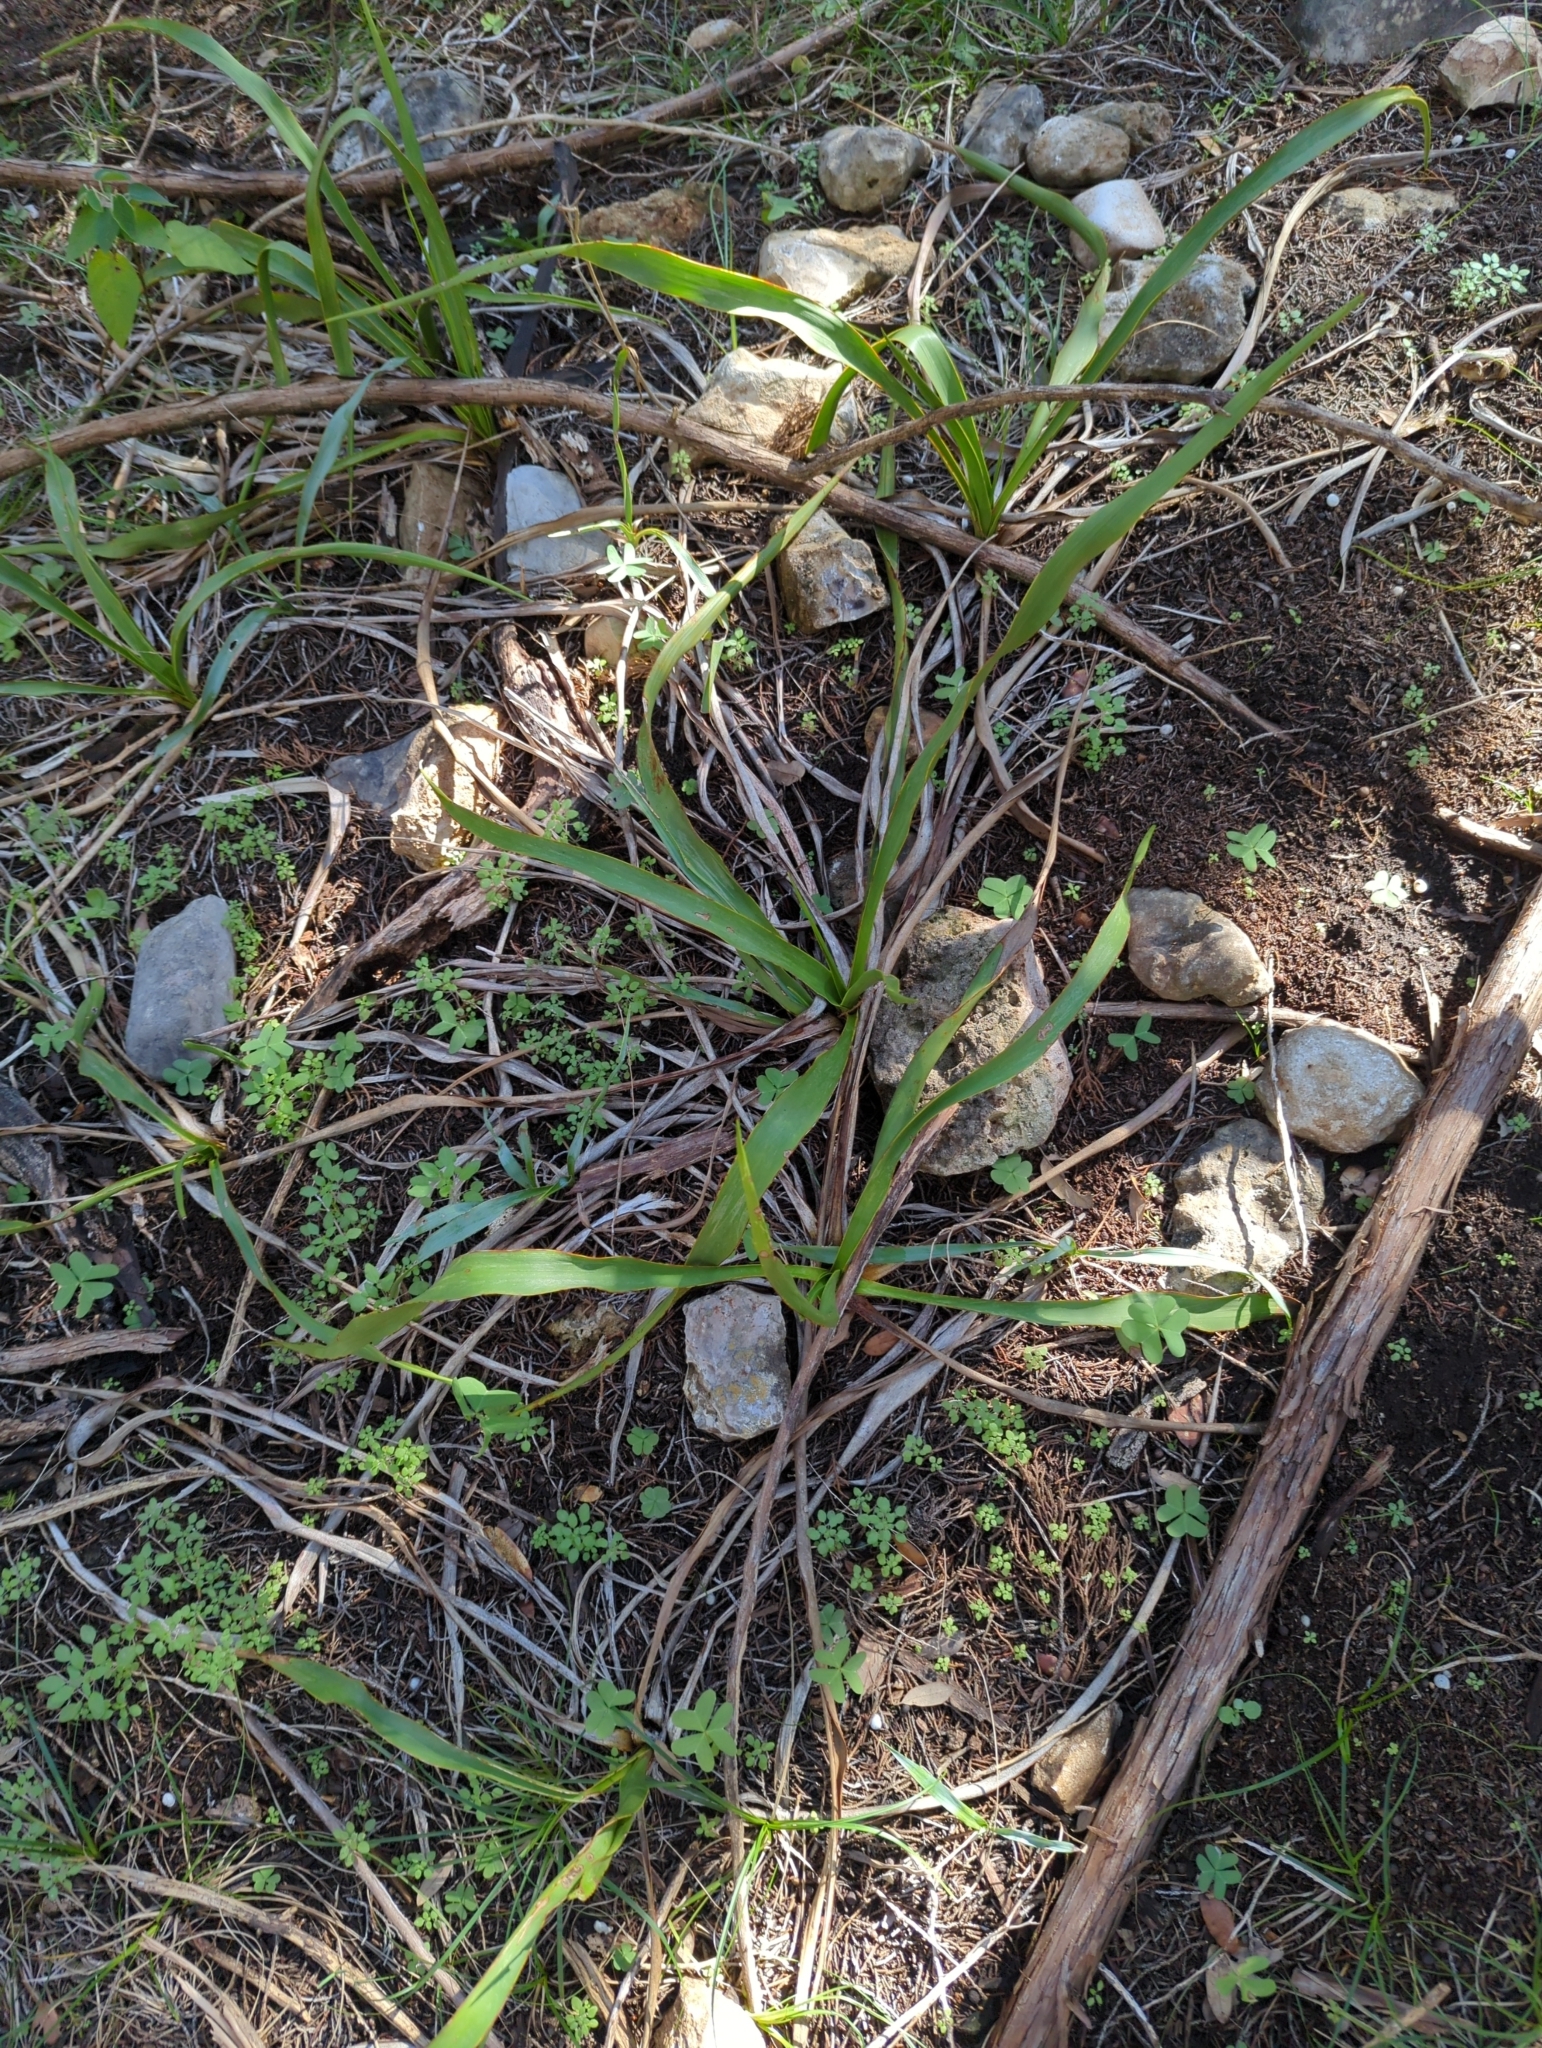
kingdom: Plantae
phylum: Tracheophyta
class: Liliopsida
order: Asparagales
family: Asparagaceae
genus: Yucca
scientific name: Yucca rupicola
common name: Twisted-leaf spanish-dagger
